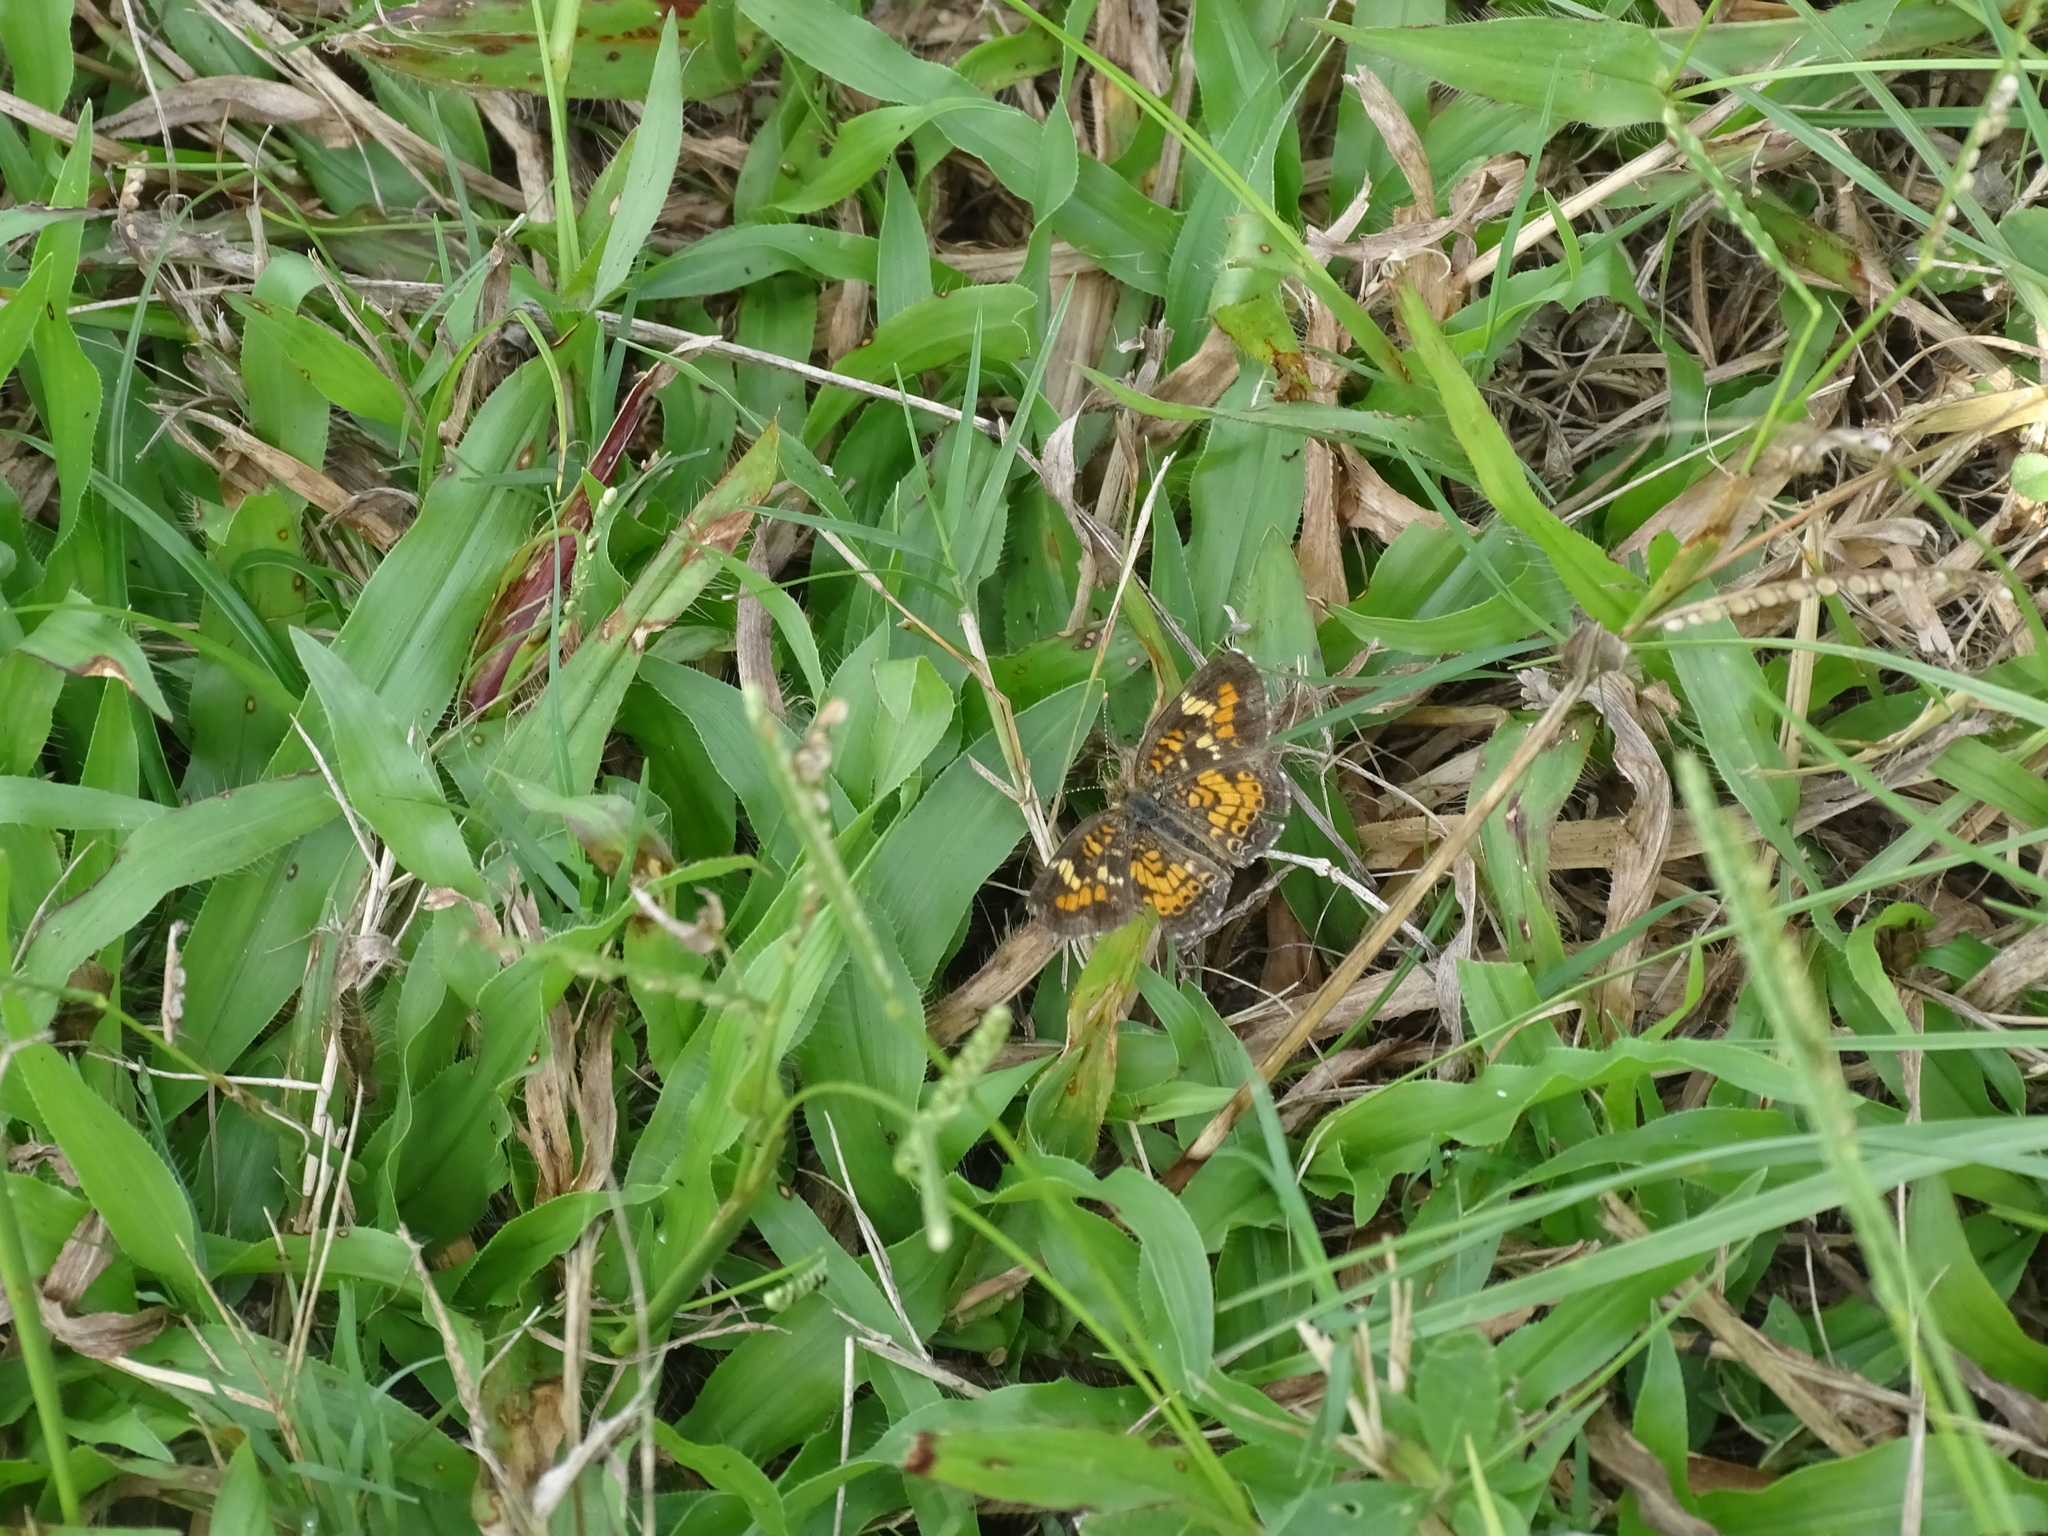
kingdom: Animalia
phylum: Arthropoda
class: Insecta
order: Lepidoptera
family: Nymphalidae
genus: Phyciodes
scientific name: Phyciodes phaon
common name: Phaon crescent
